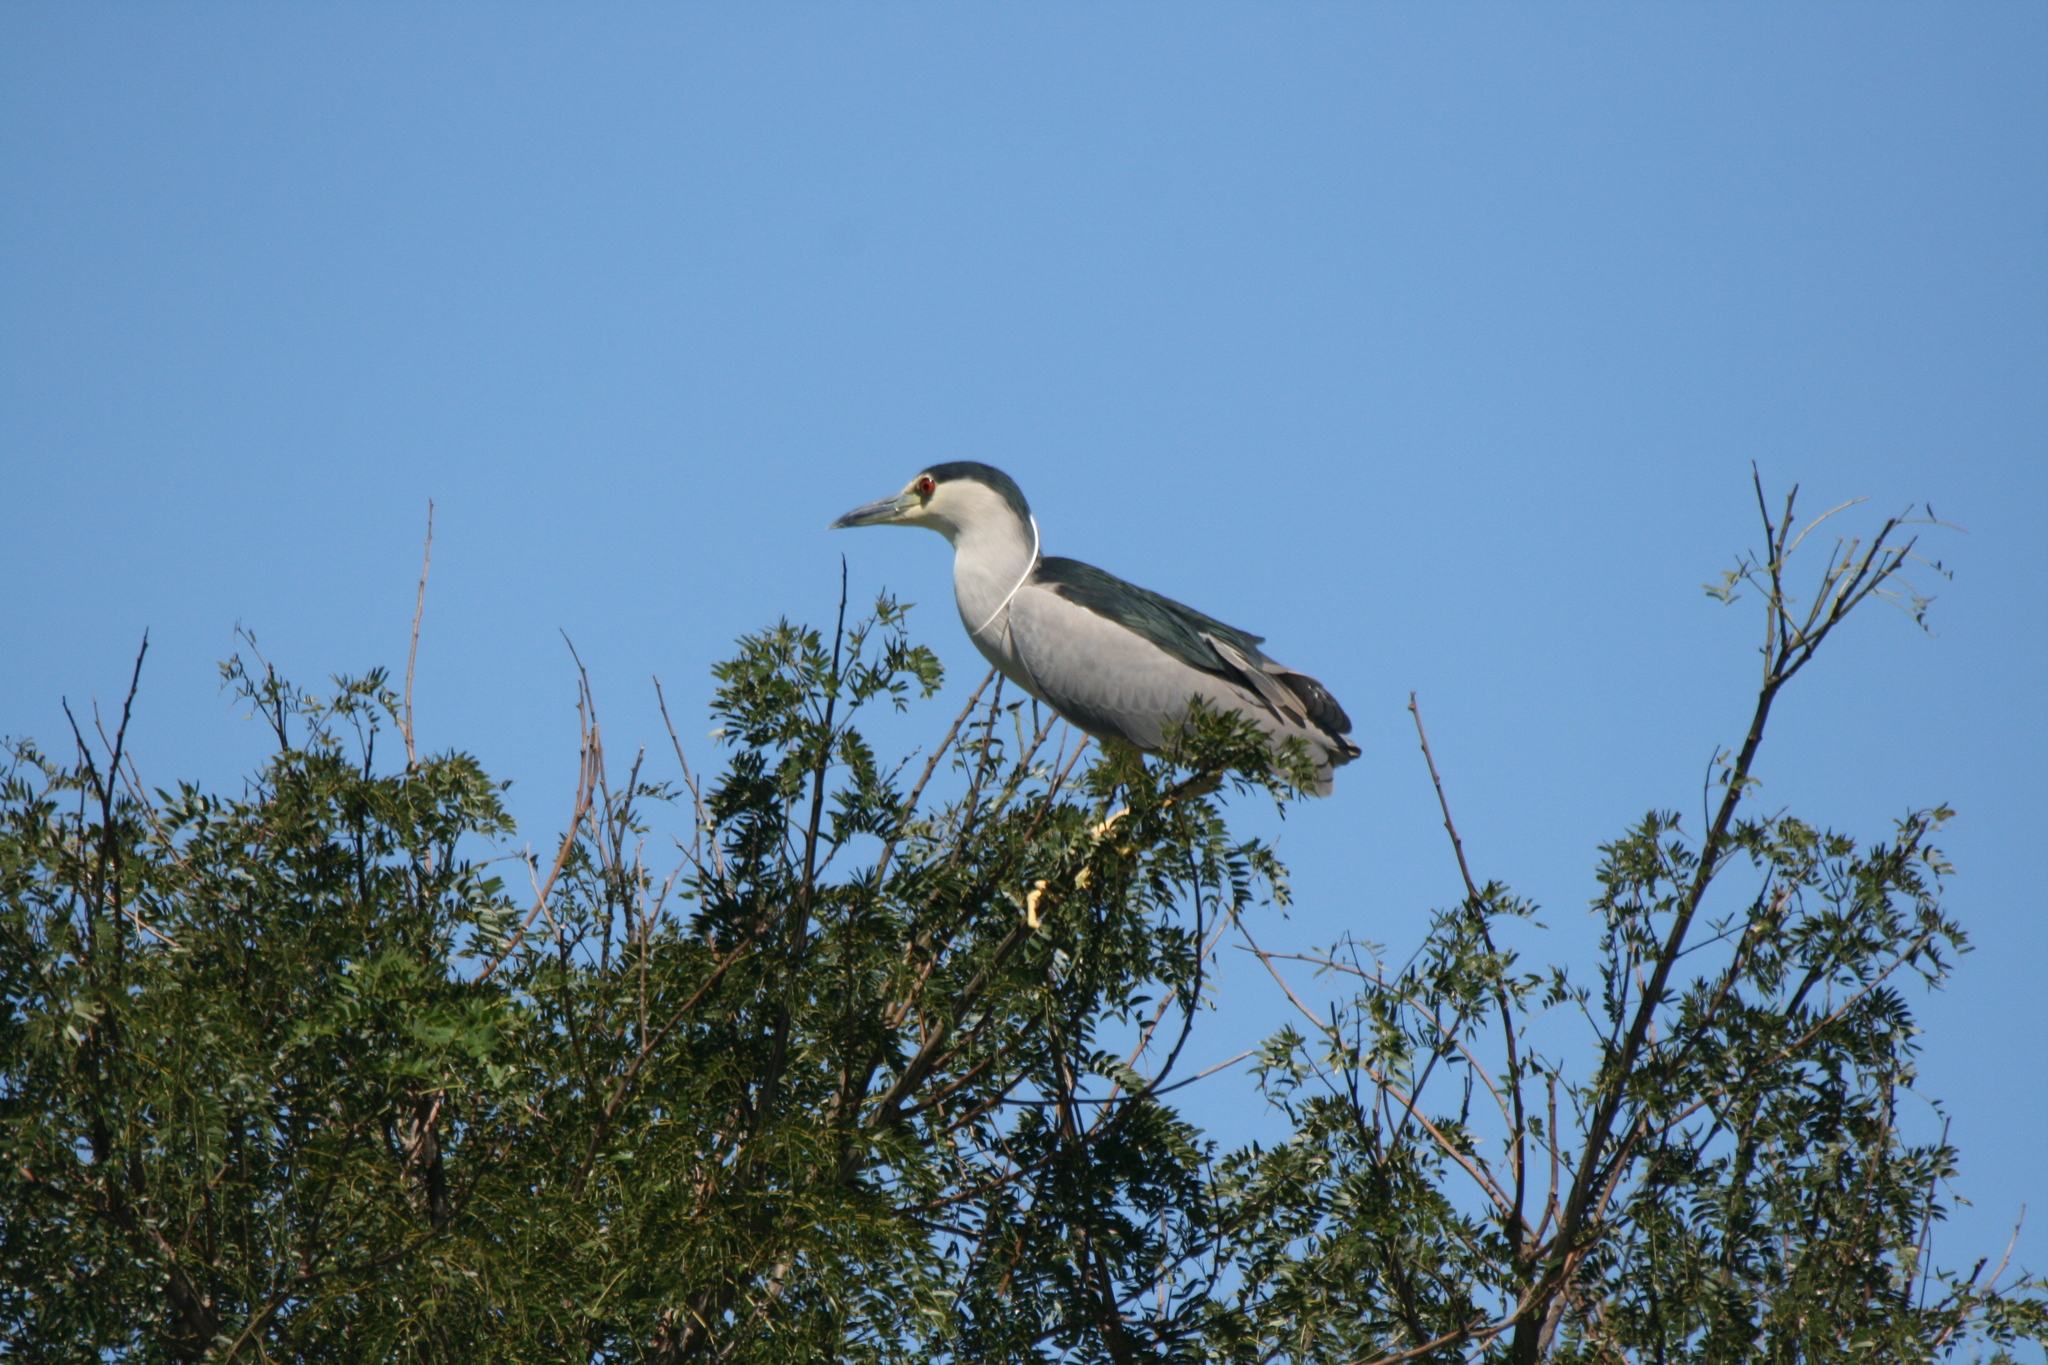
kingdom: Animalia
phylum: Chordata
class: Aves
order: Pelecaniformes
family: Ardeidae
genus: Nycticorax
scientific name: Nycticorax nycticorax
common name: Black-crowned night heron
